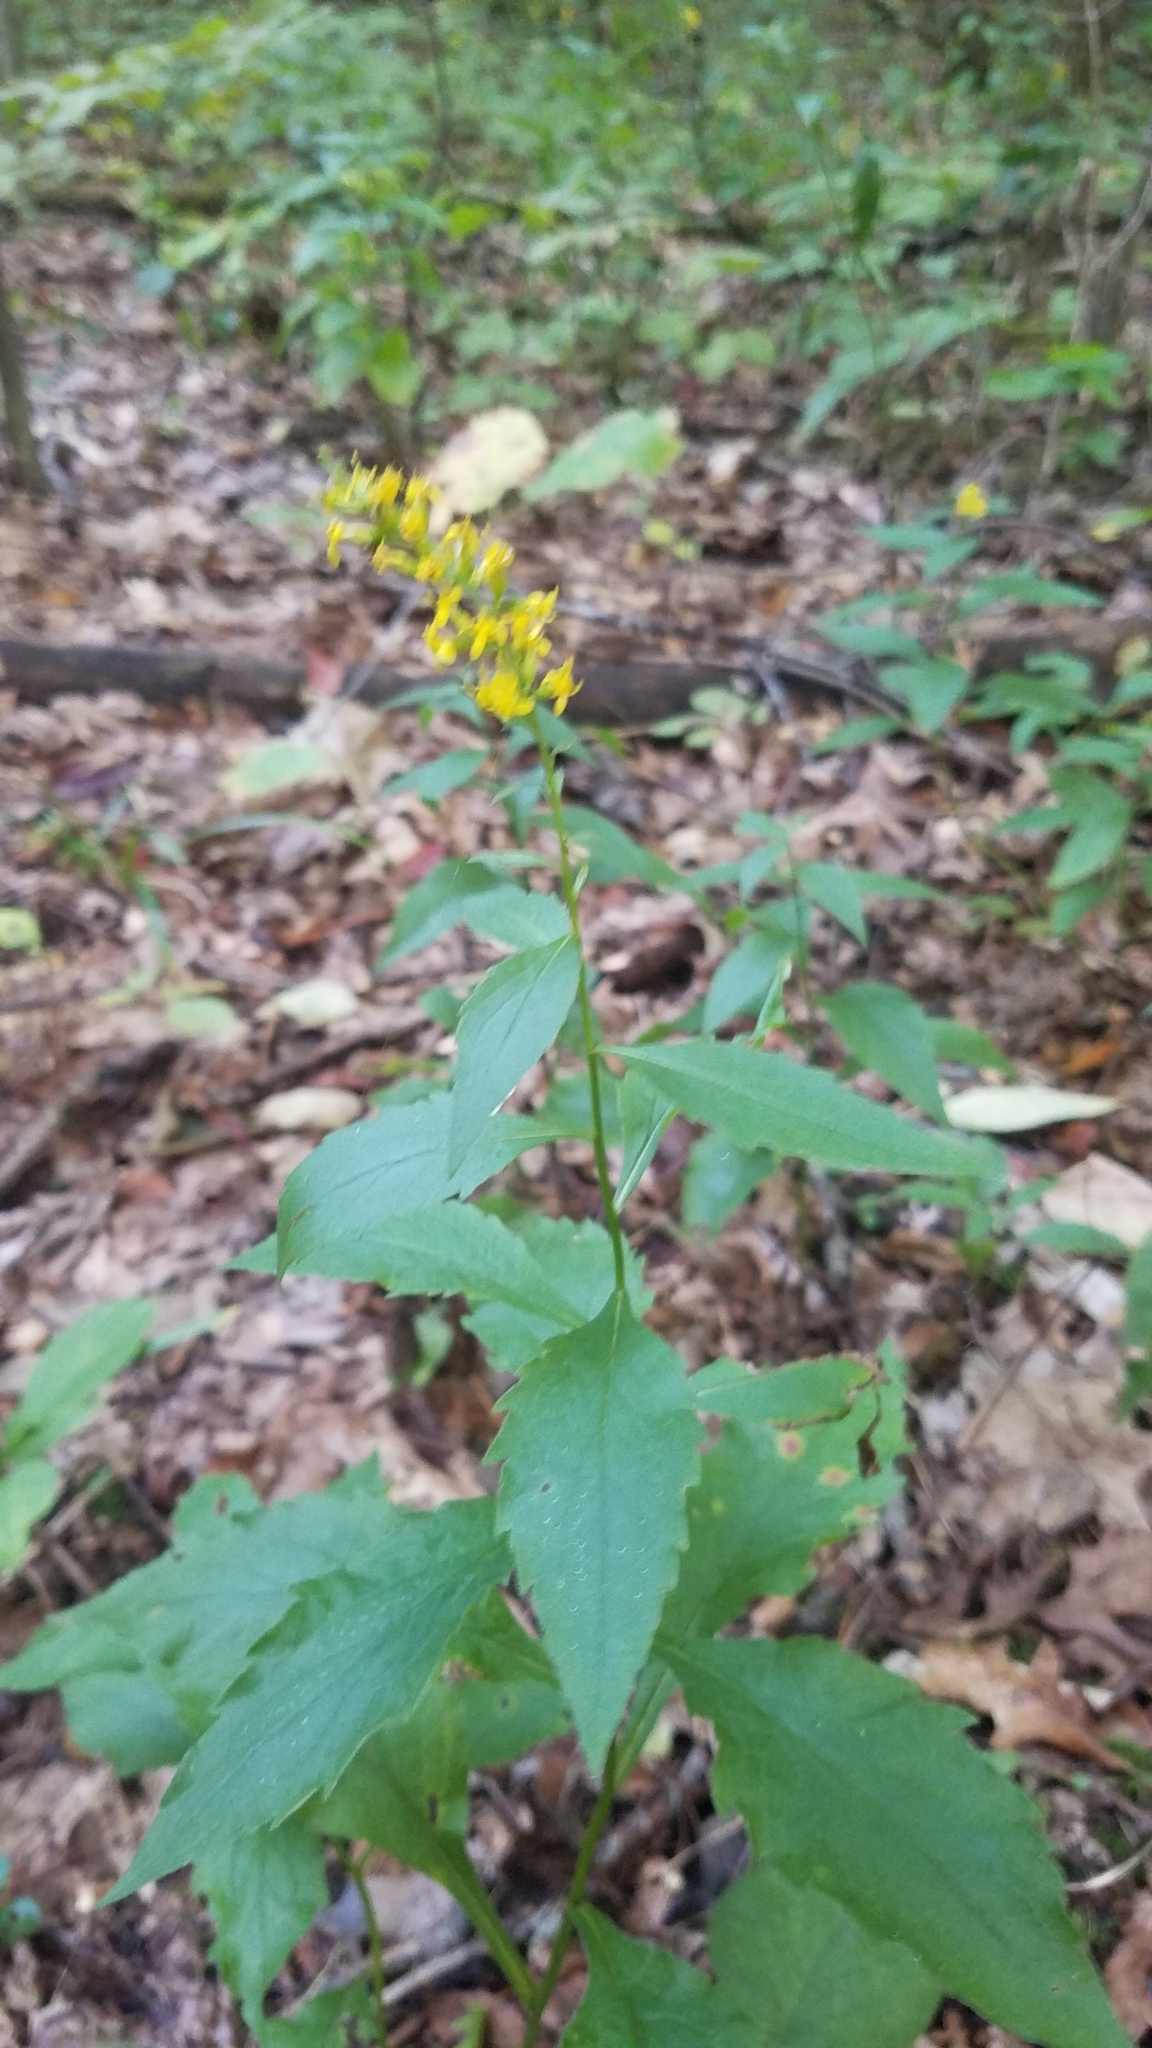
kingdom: Plantae
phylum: Tracheophyta
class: Magnoliopsida
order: Asterales
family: Asteraceae
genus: Solidago
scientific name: Solidago ulmifolia
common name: Elm-leaf goldenrod
